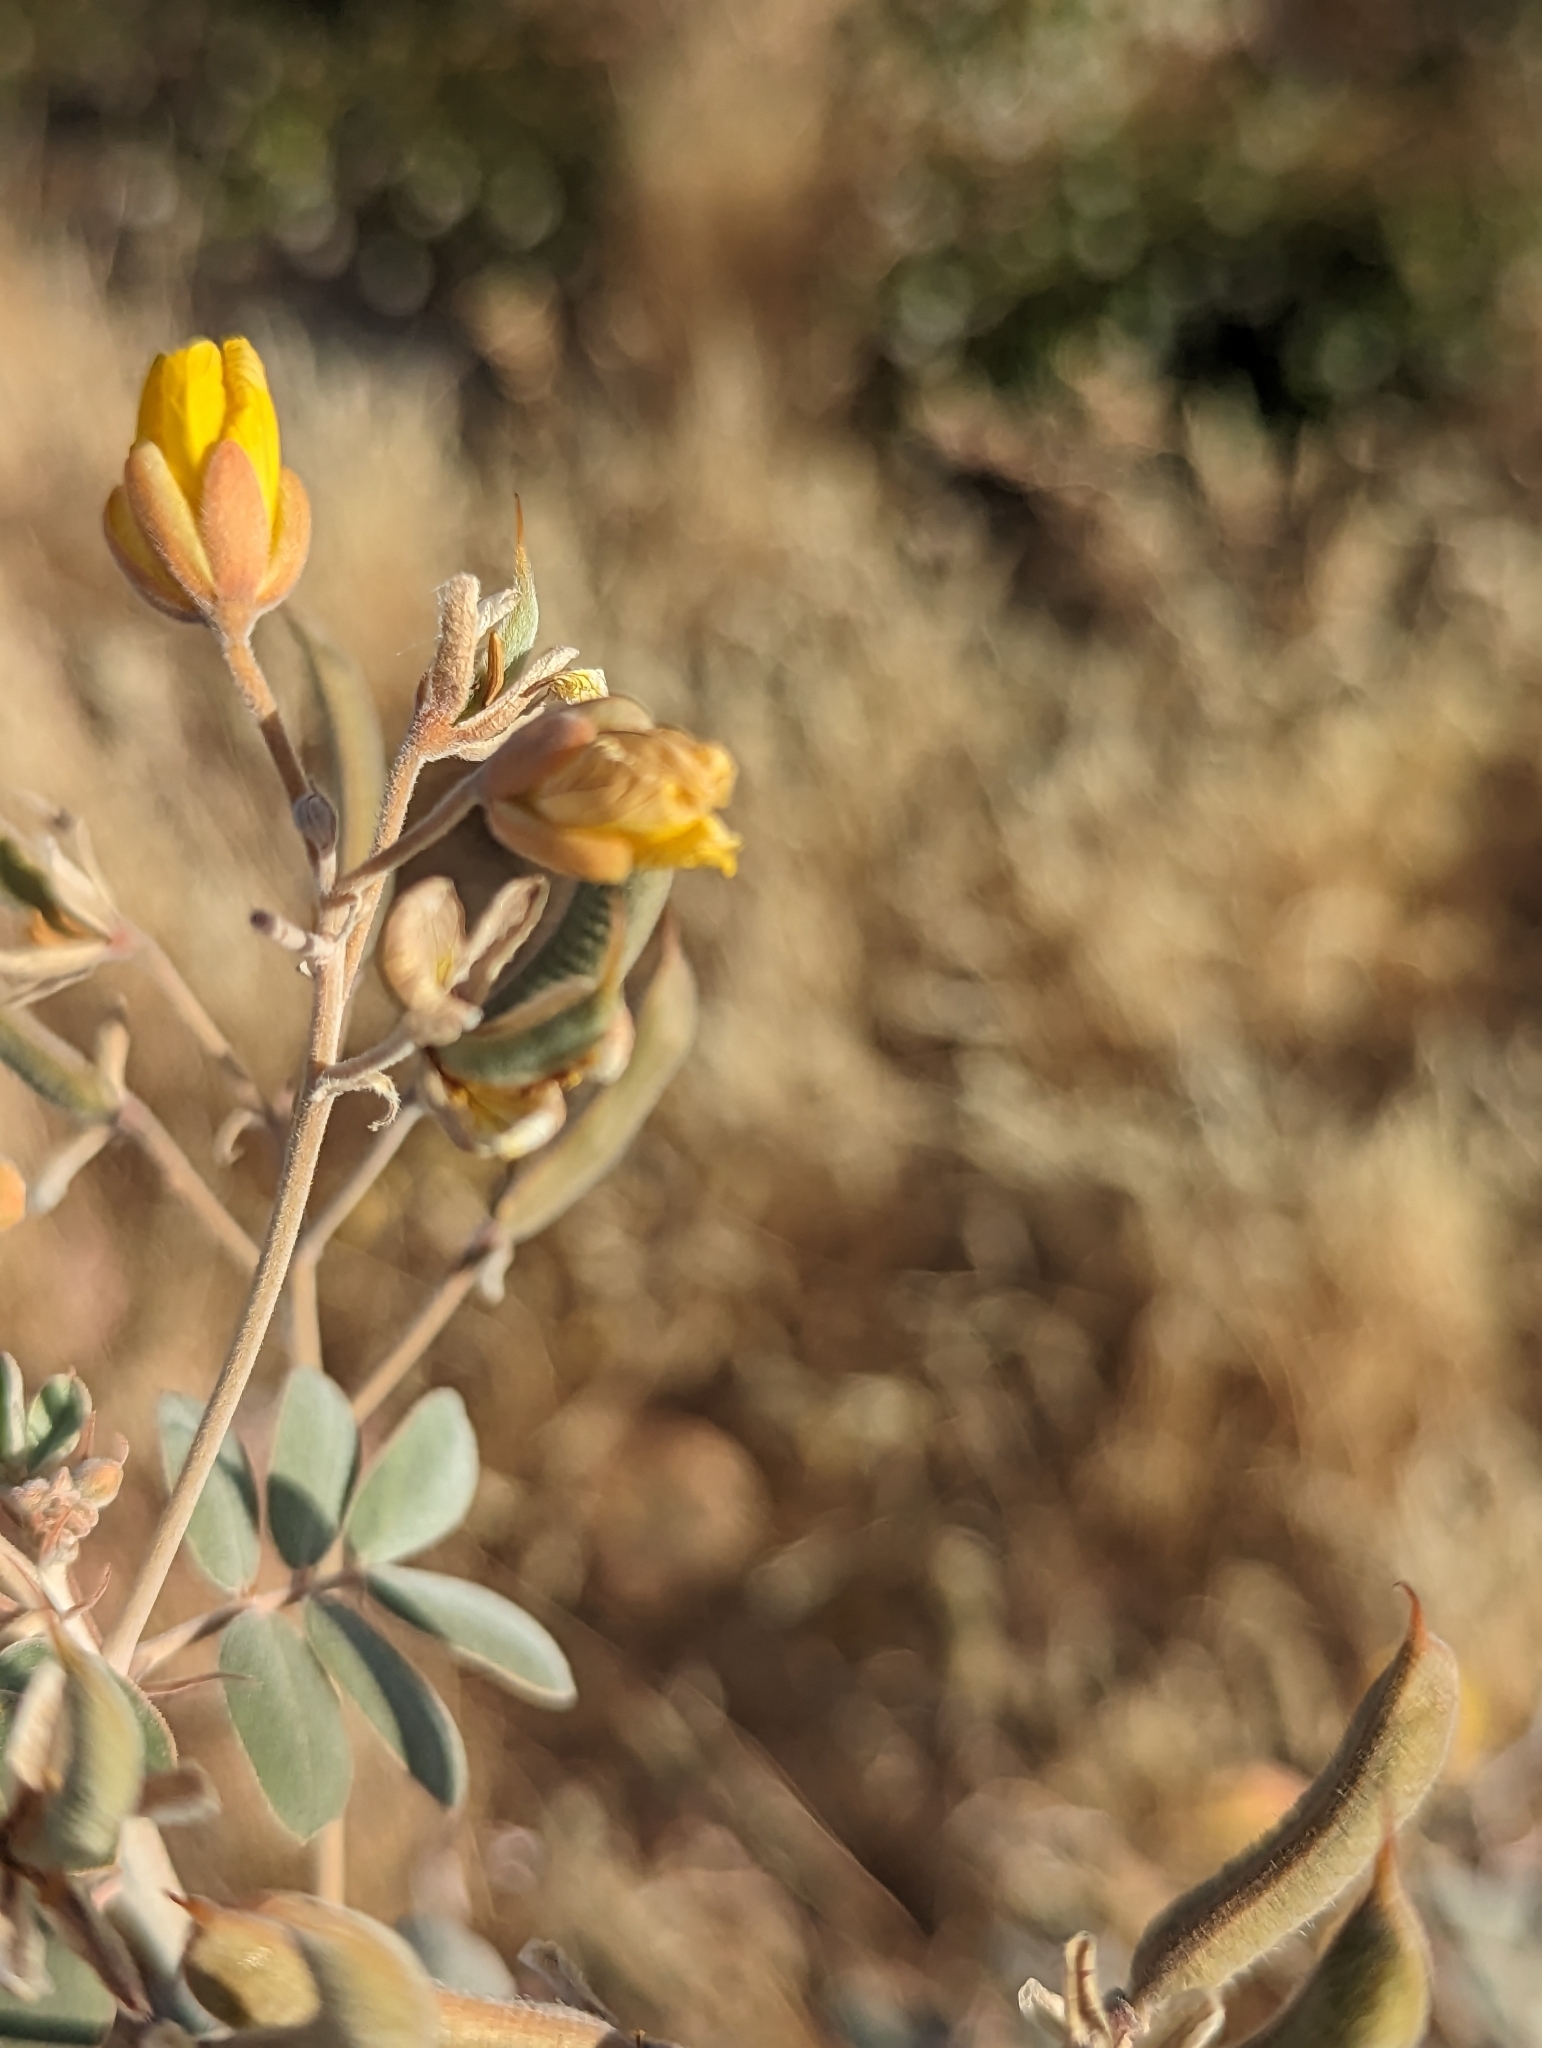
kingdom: Plantae
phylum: Tracheophyta
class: Magnoliopsida
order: Fabales
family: Fabaceae
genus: Senna
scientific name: Senna covesii
